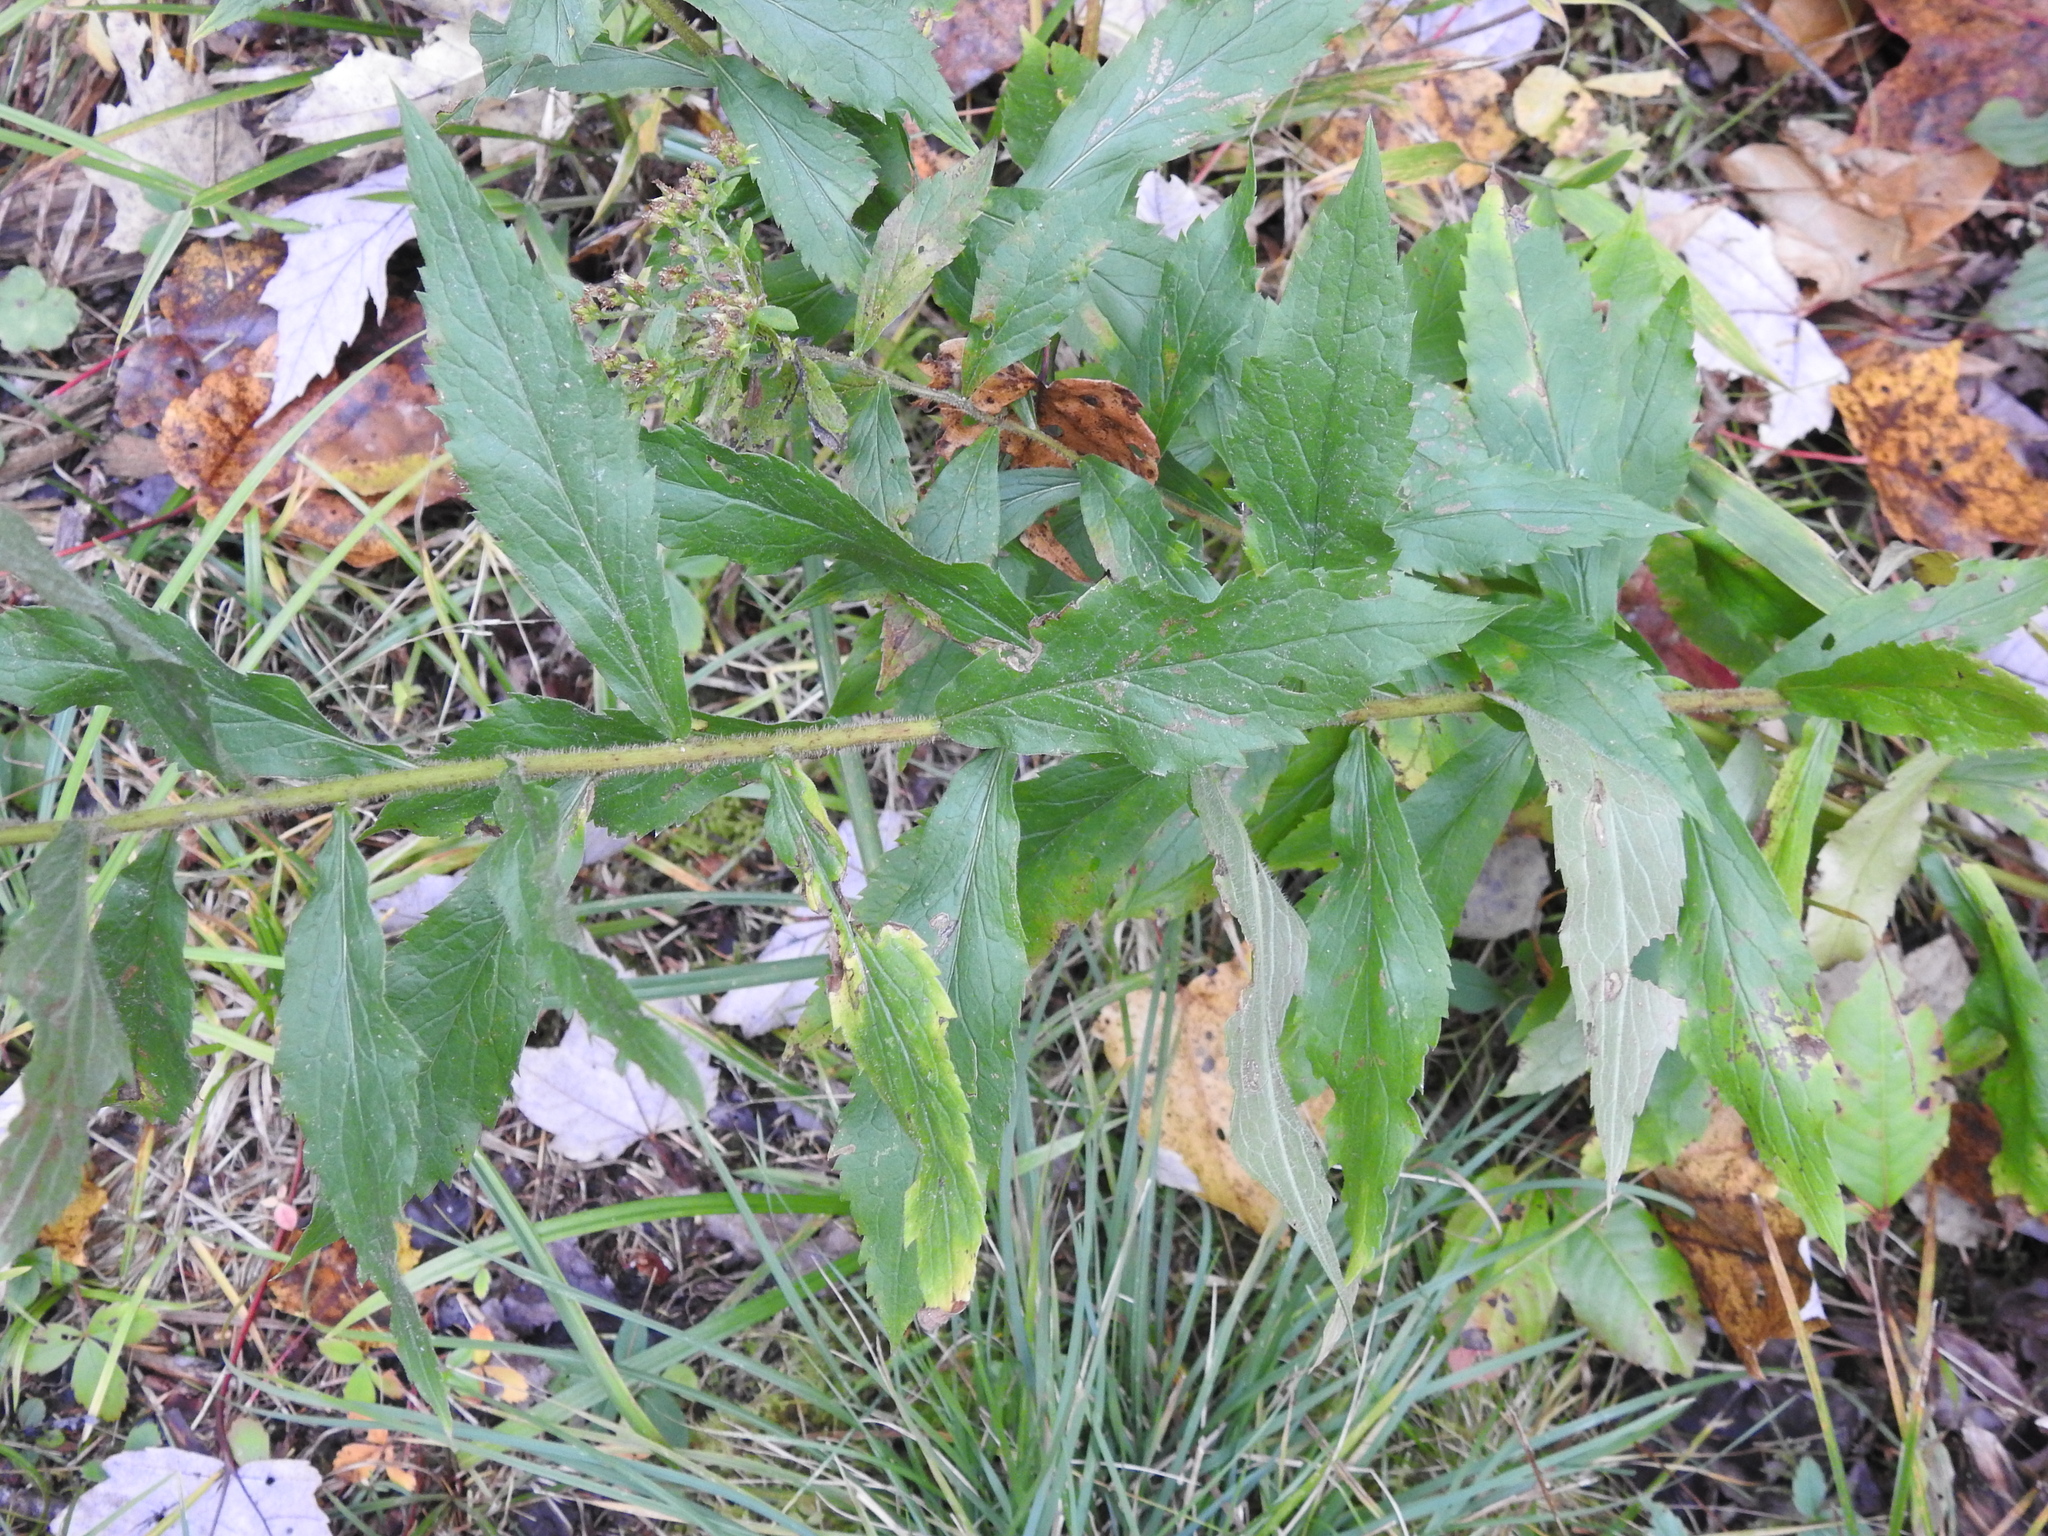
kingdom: Plantae
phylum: Tracheophyta
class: Magnoliopsida
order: Asterales
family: Asteraceae
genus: Solidago
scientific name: Solidago rugosa
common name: Rough-stemmed goldenrod
